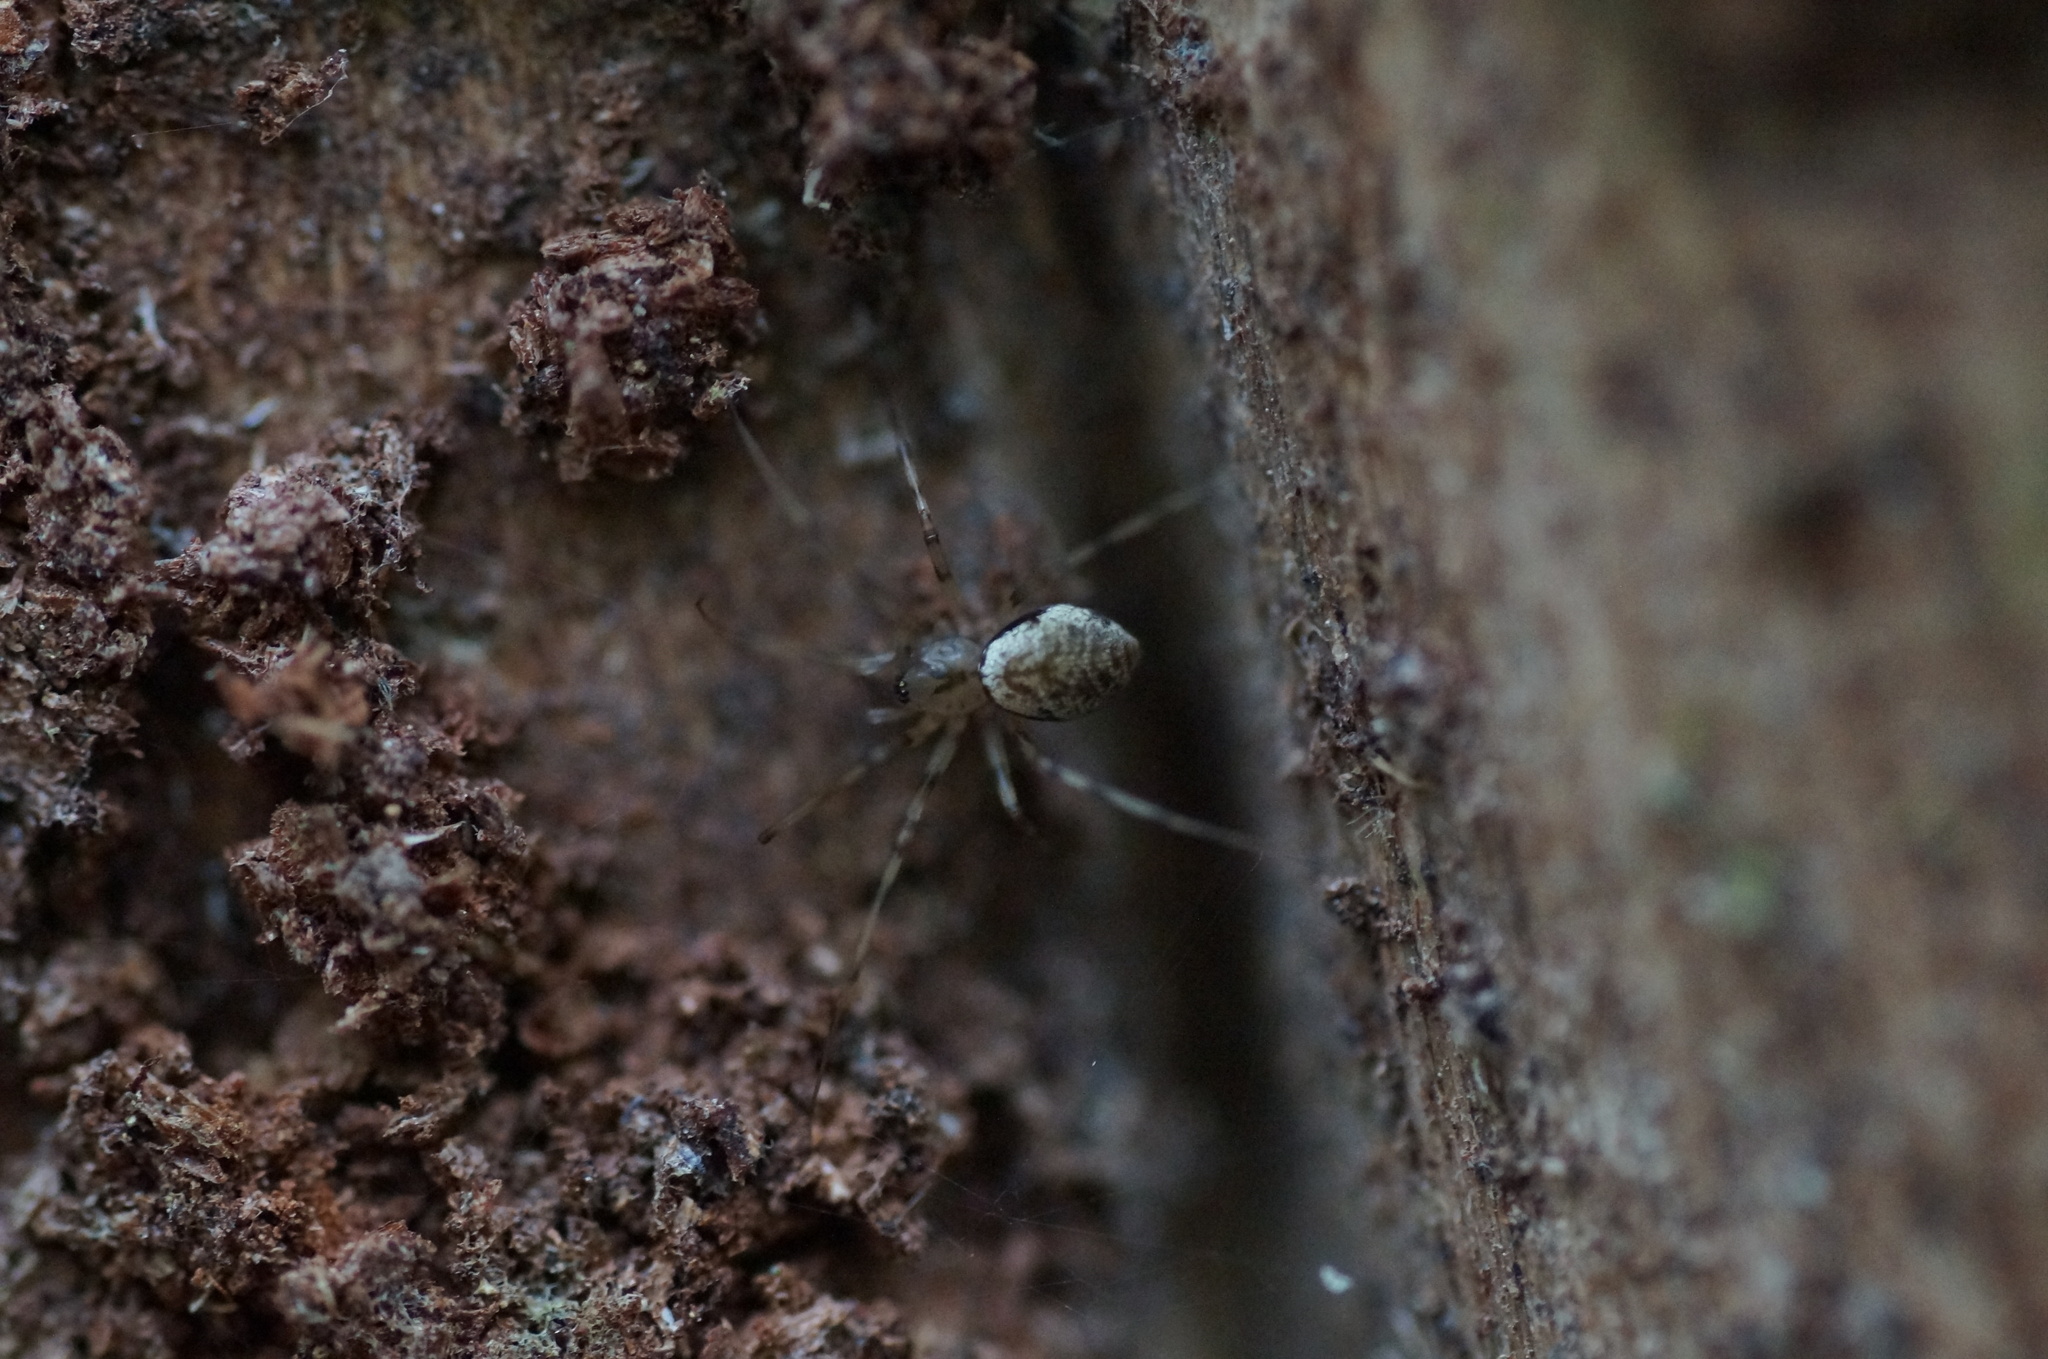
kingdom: Animalia
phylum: Arthropoda
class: Arachnida
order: Araneae
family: Linyphiidae
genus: Drapetisca
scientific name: Drapetisca socialis
